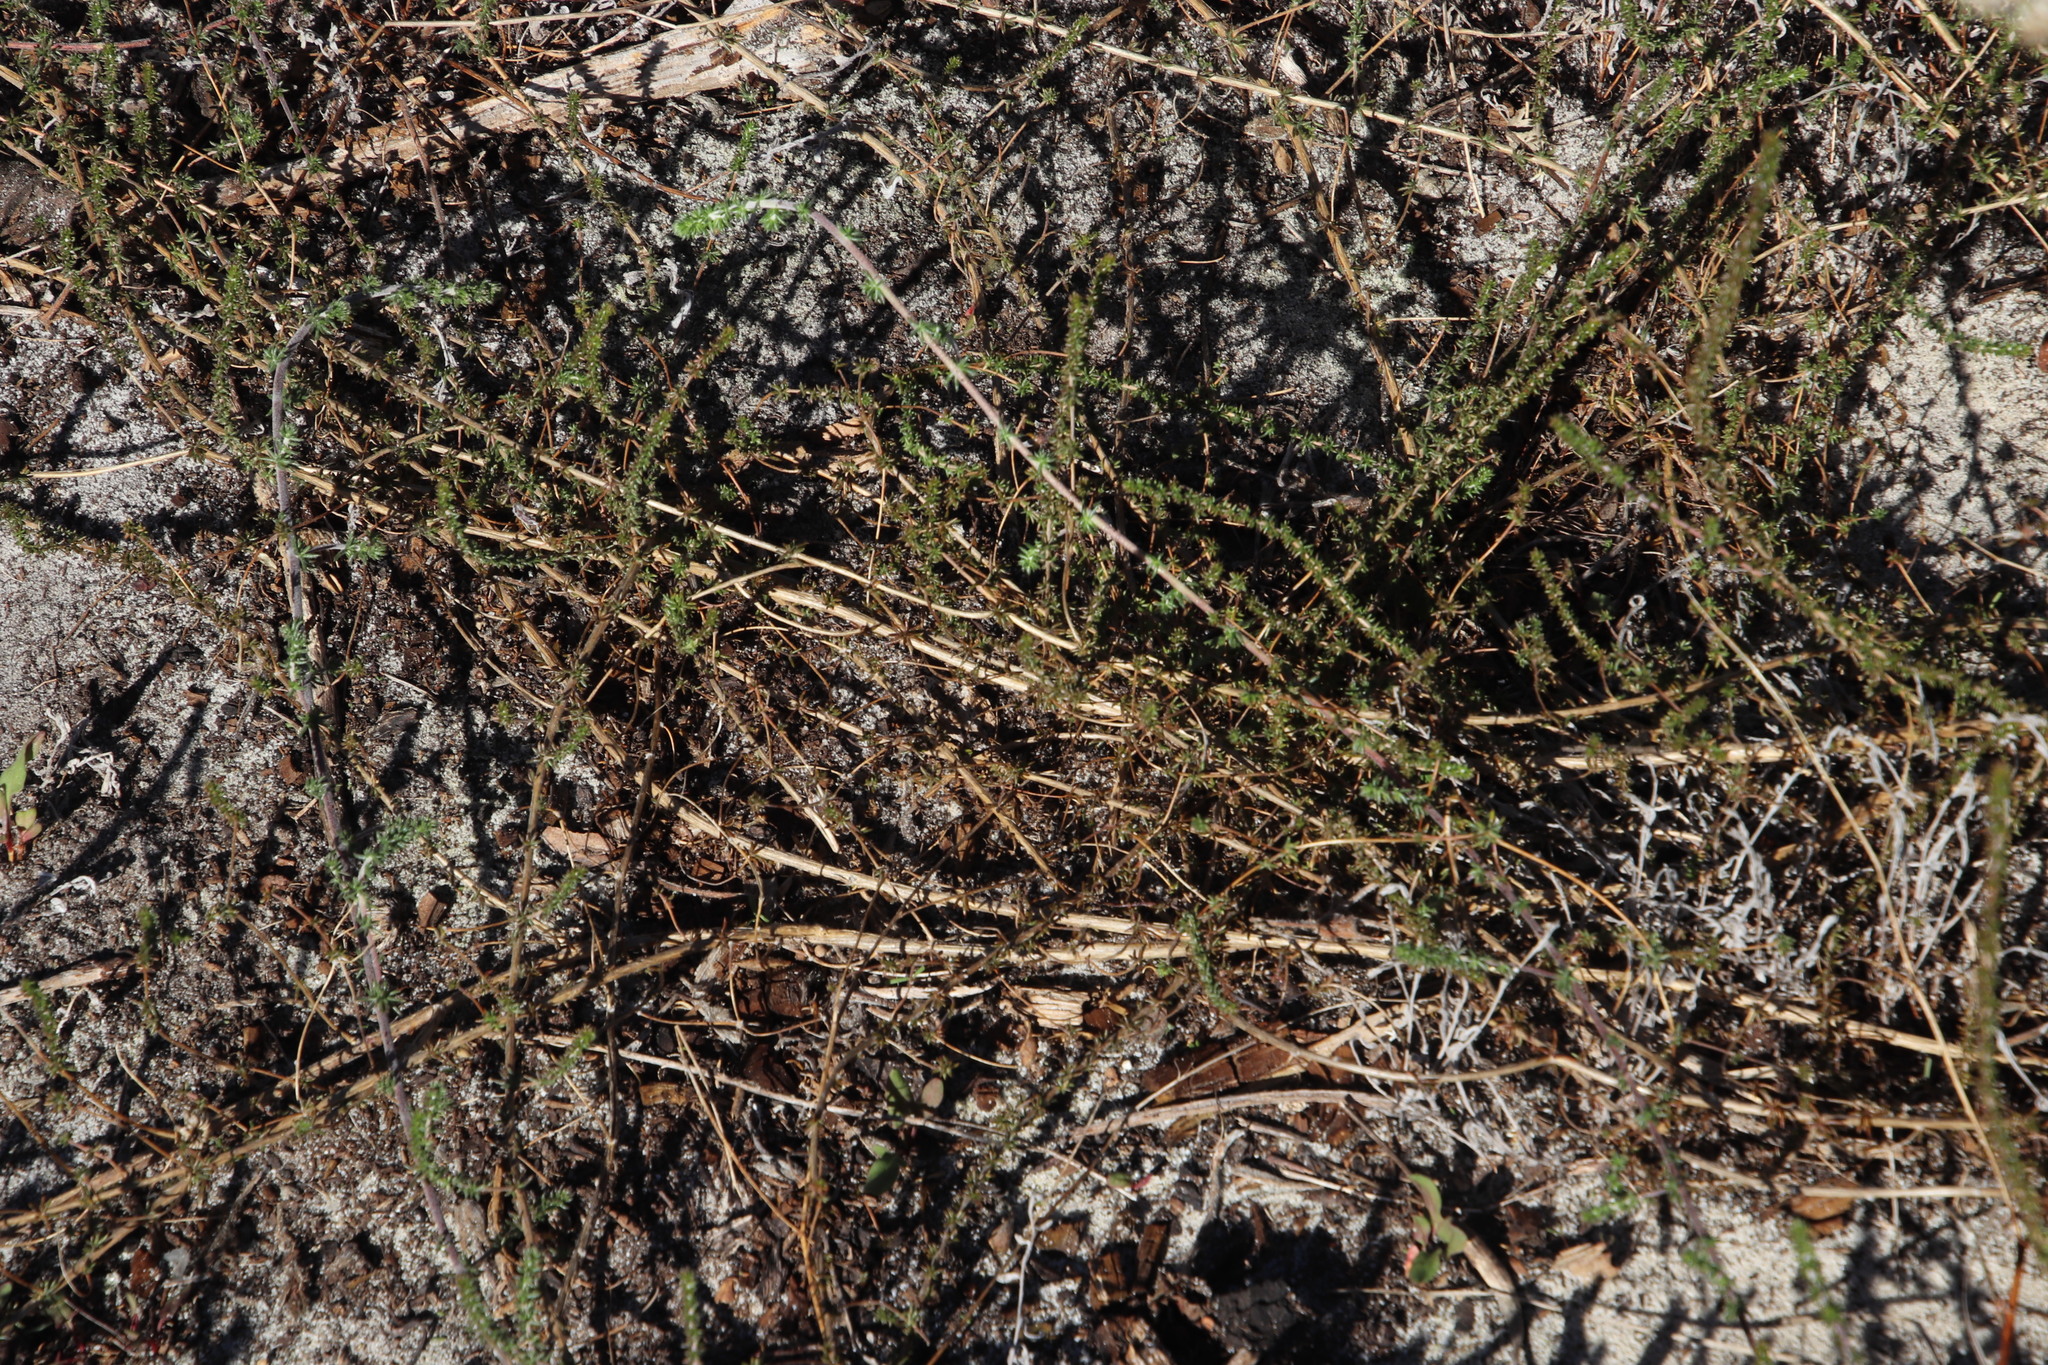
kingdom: Plantae
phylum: Tracheophyta
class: Magnoliopsida
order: Fabales
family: Fabaceae
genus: Aspalathus
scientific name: Aspalathus retroflexa
